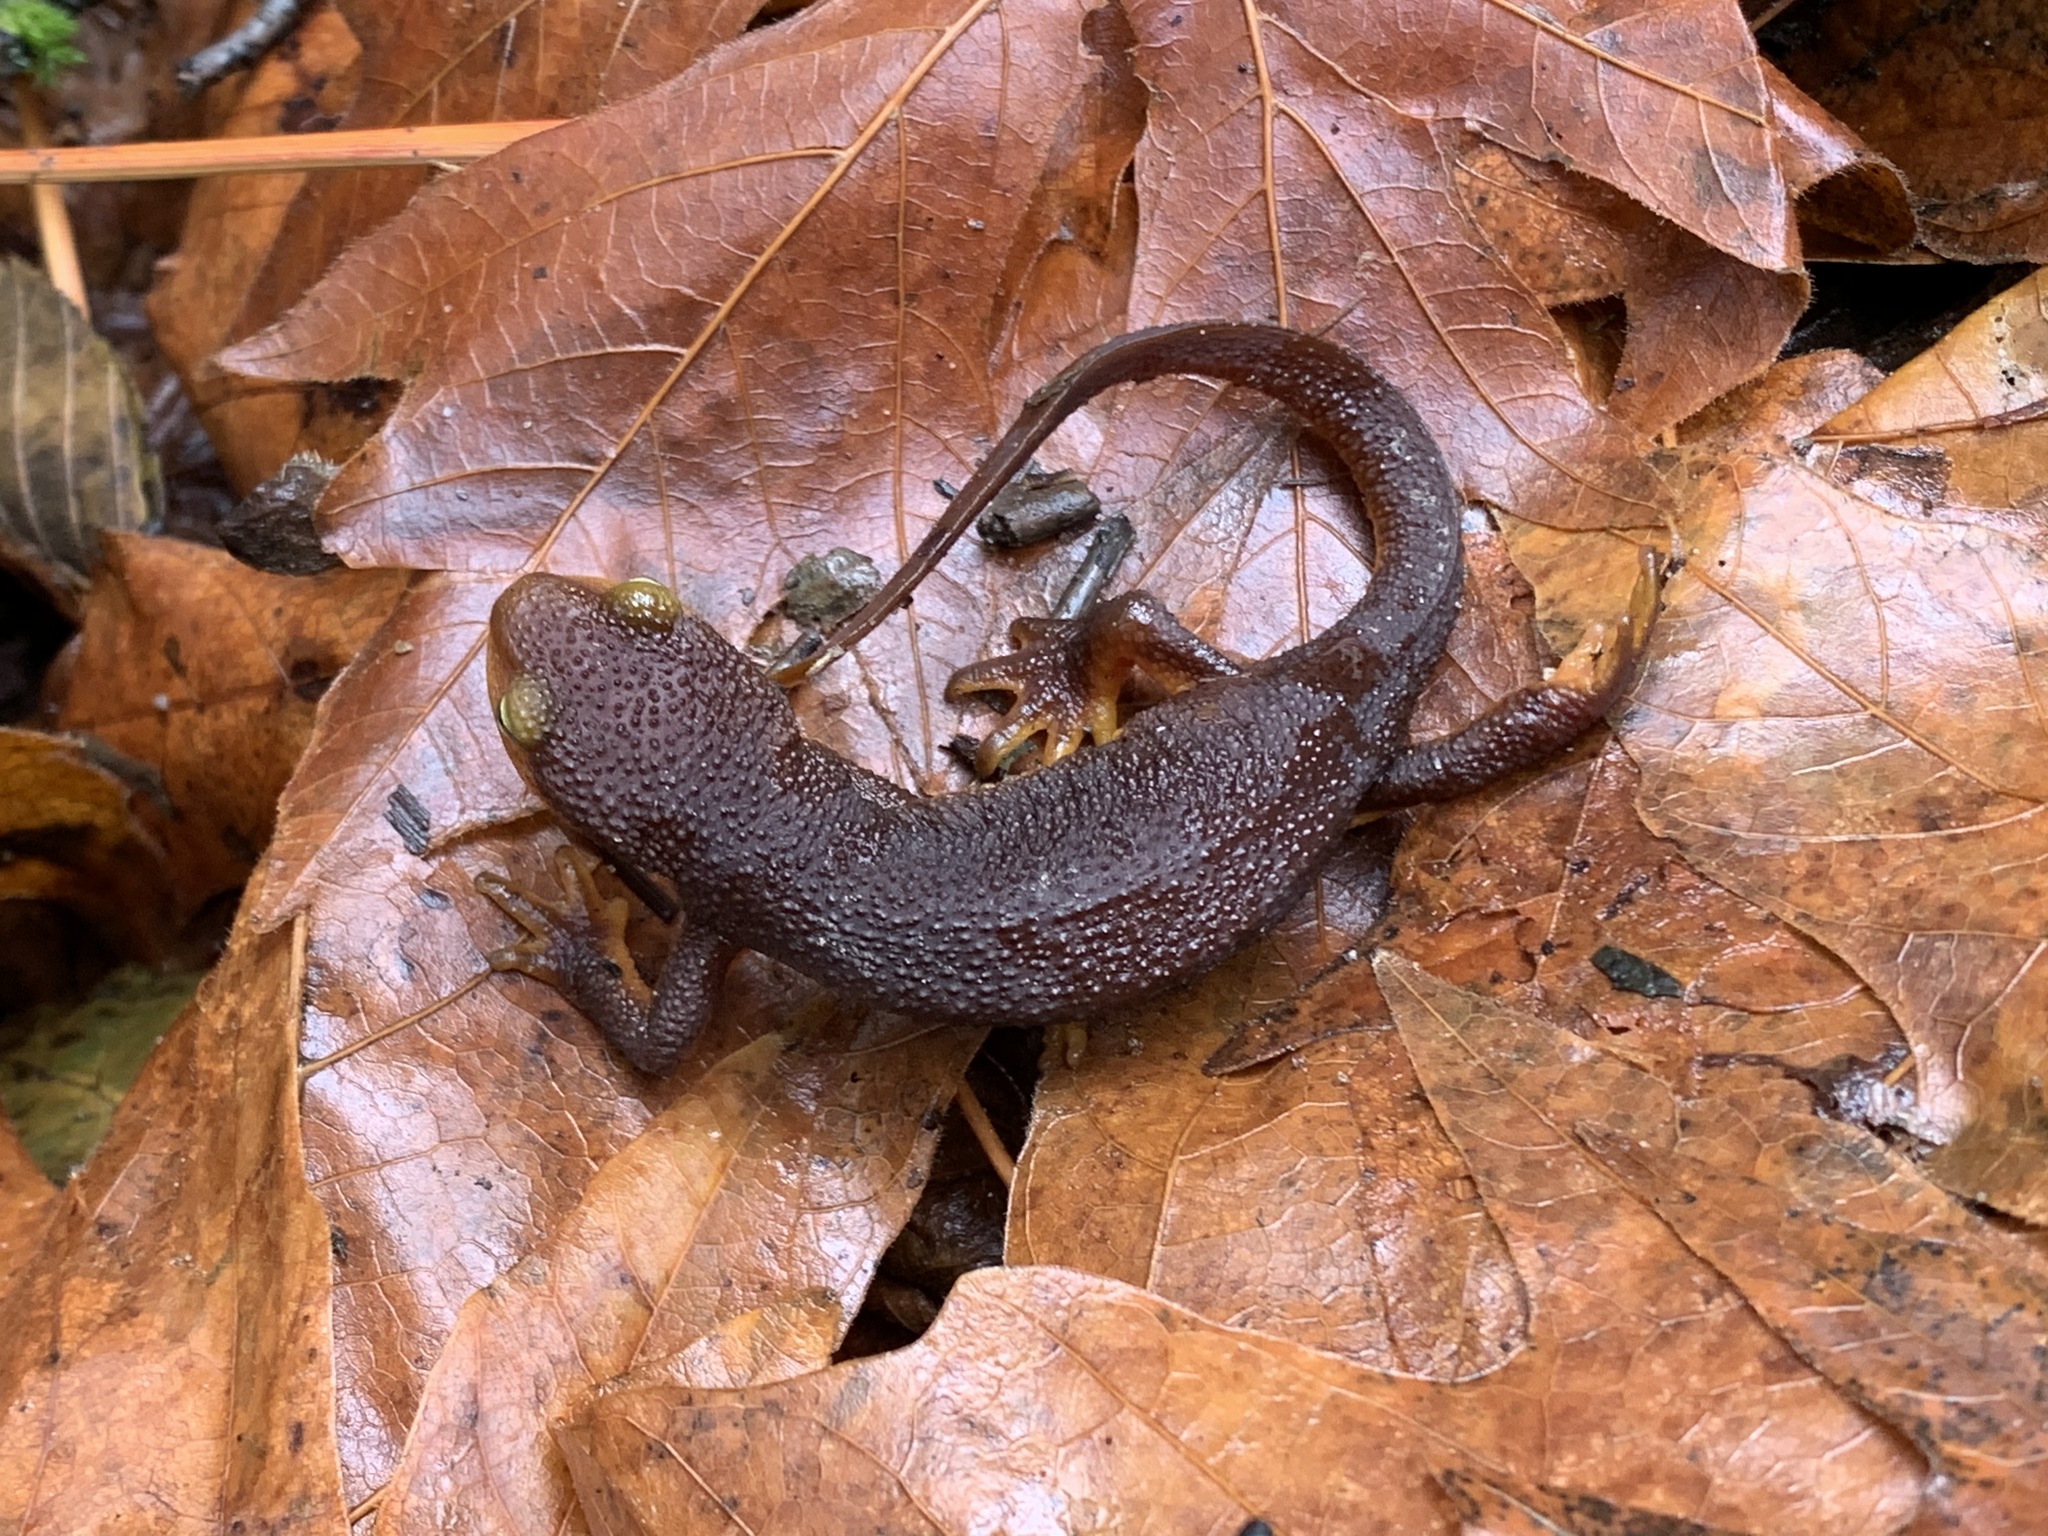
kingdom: Animalia
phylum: Chordata
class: Amphibia
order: Caudata
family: Salamandridae
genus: Taricha
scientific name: Taricha torosa
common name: California newt
